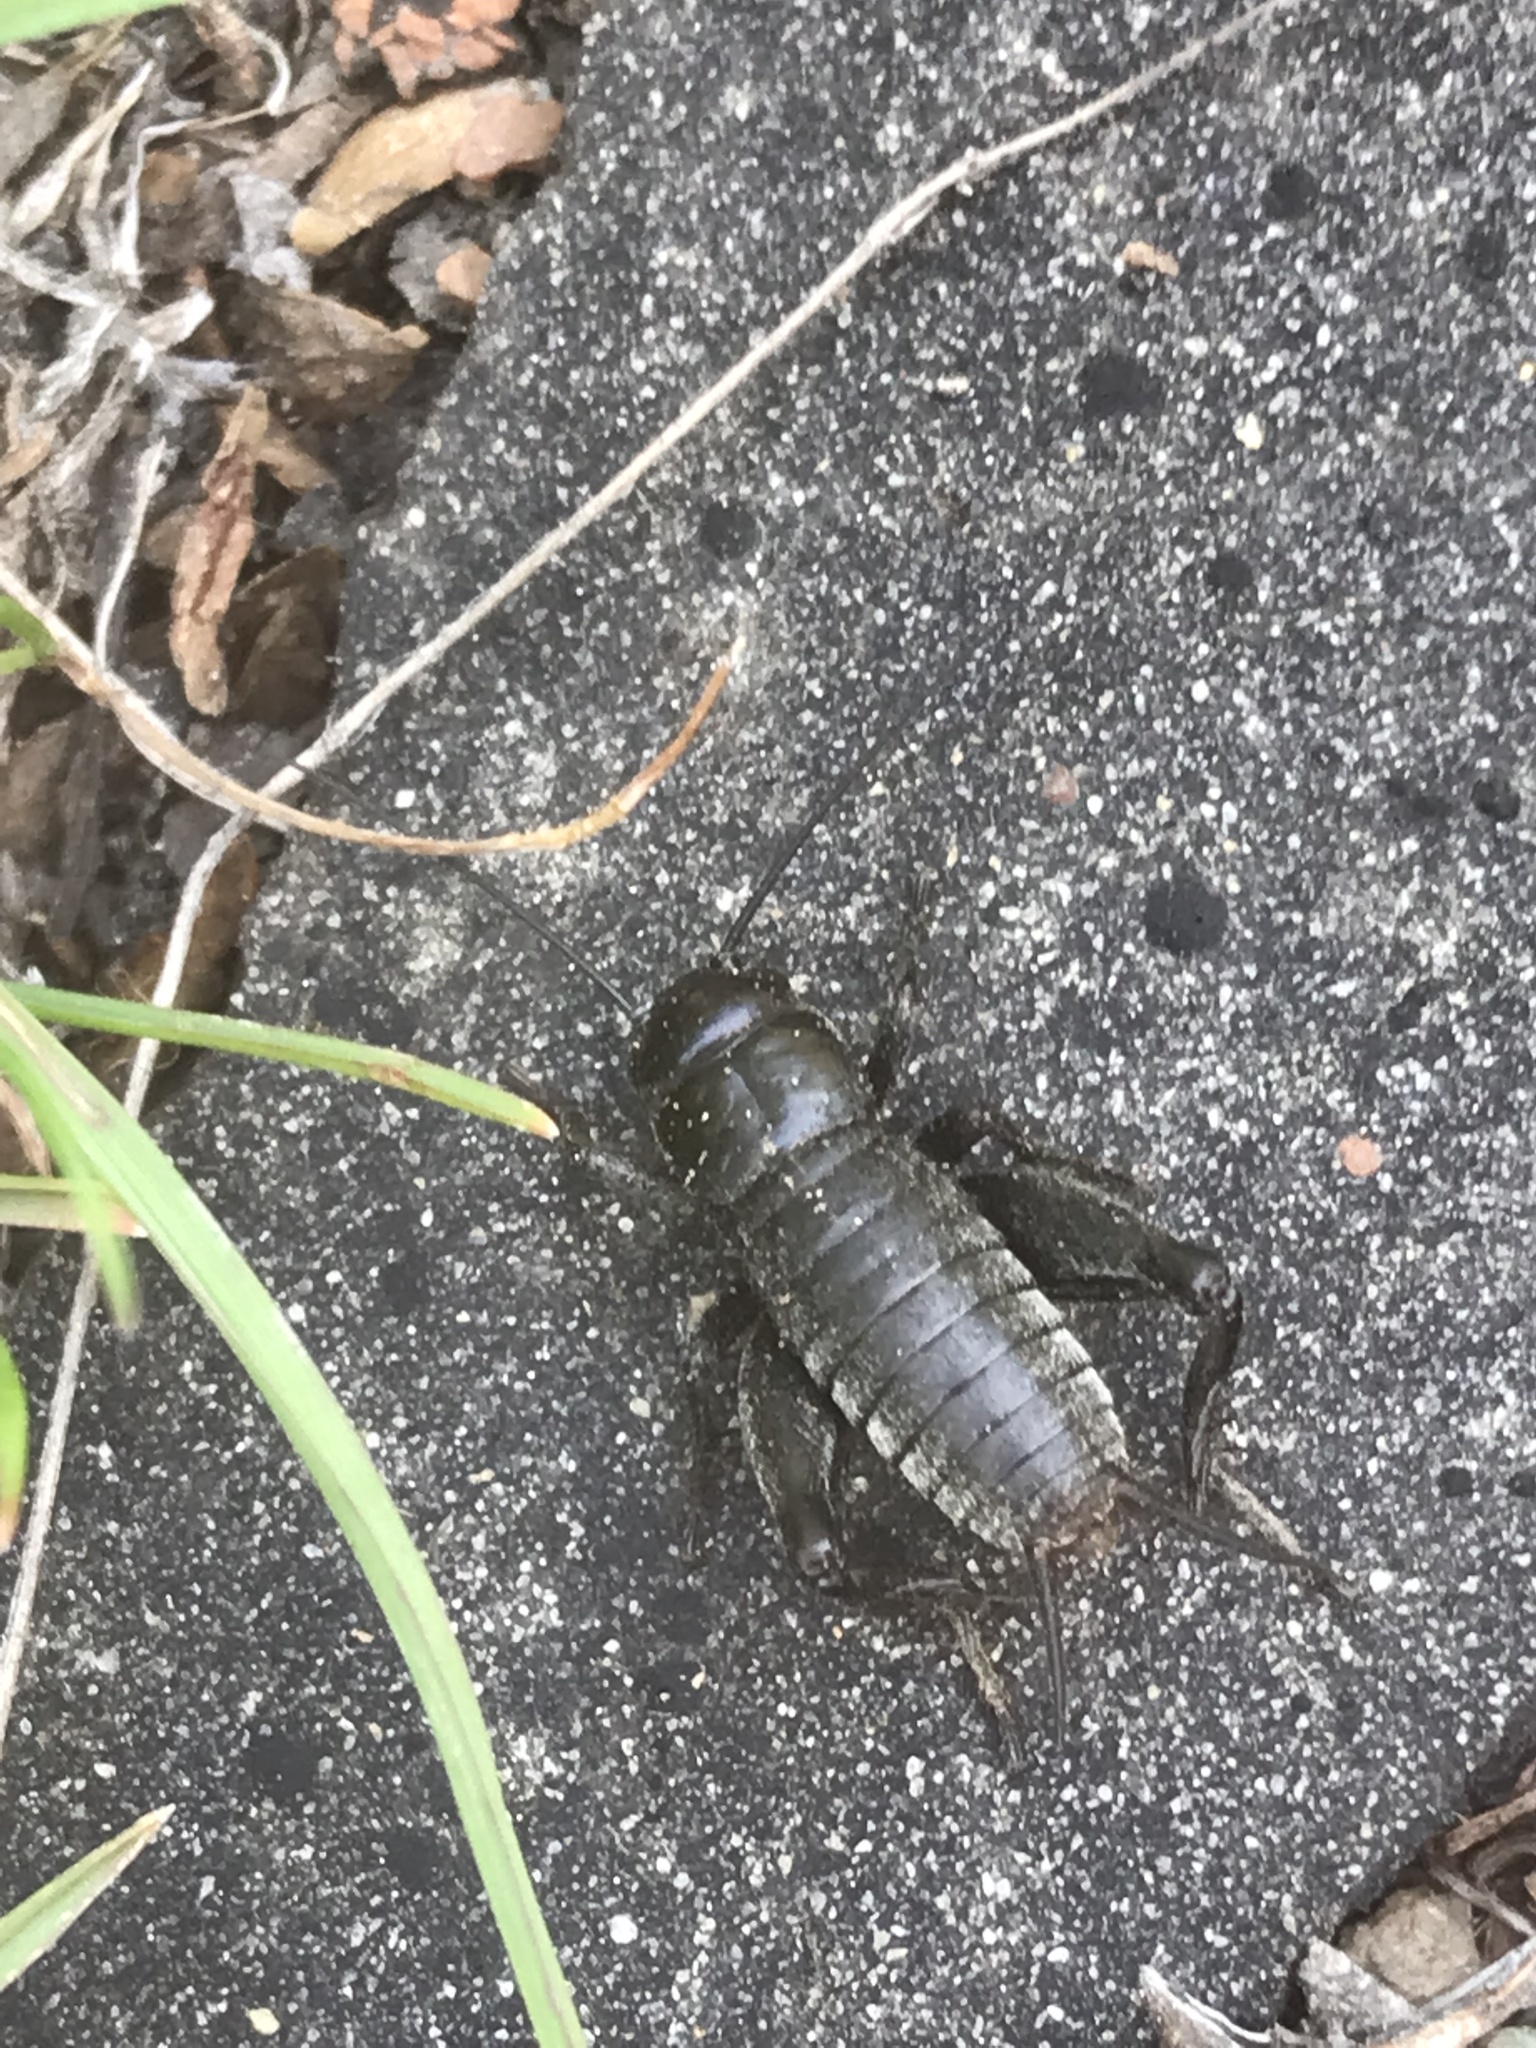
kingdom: Animalia
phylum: Arthropoda
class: Insecta
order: Orthoptera
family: Gryllidae
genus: Gryllus
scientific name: Gryllus veletis
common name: Spring field cricket
